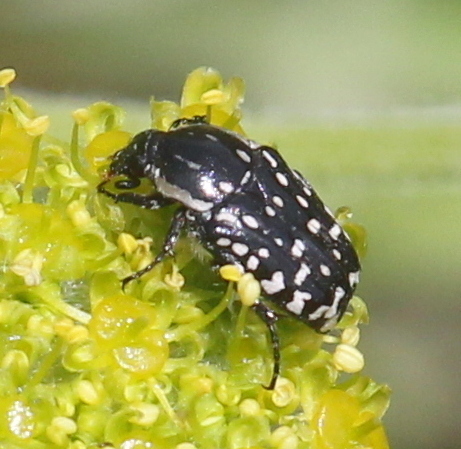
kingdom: Animalia
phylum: Arthropoda
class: Insecta
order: Coleoptera
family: Scarabaeidae
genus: Oxythyrea
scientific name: Oxythyrea albopicta
